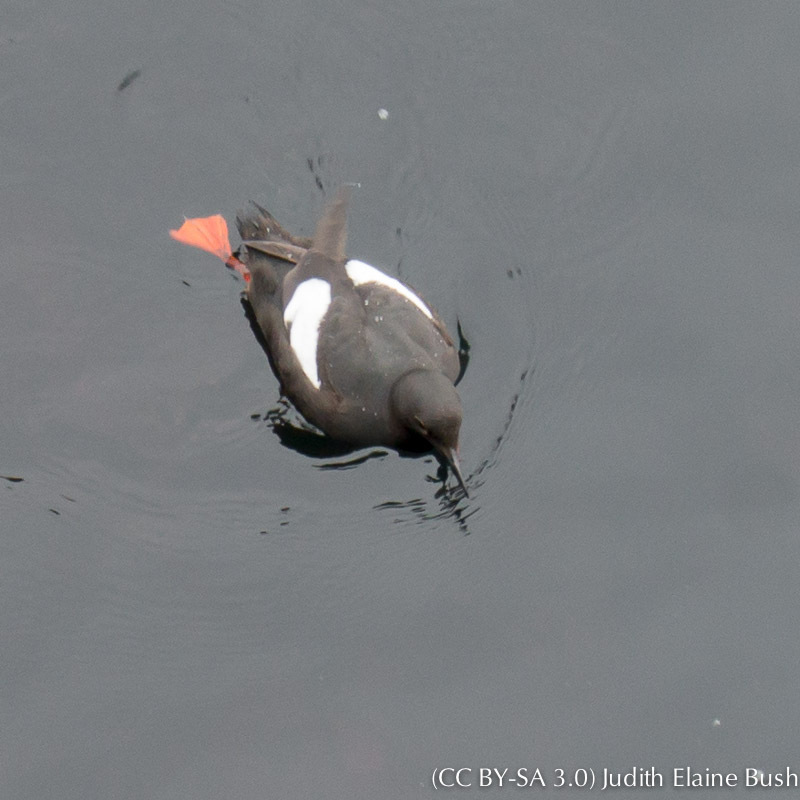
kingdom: Animalia
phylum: Chordata
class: Aves
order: Charadriiformes
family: Alcidae
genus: Cepphus
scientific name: Cepphus columba
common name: Pigeon guillemot
